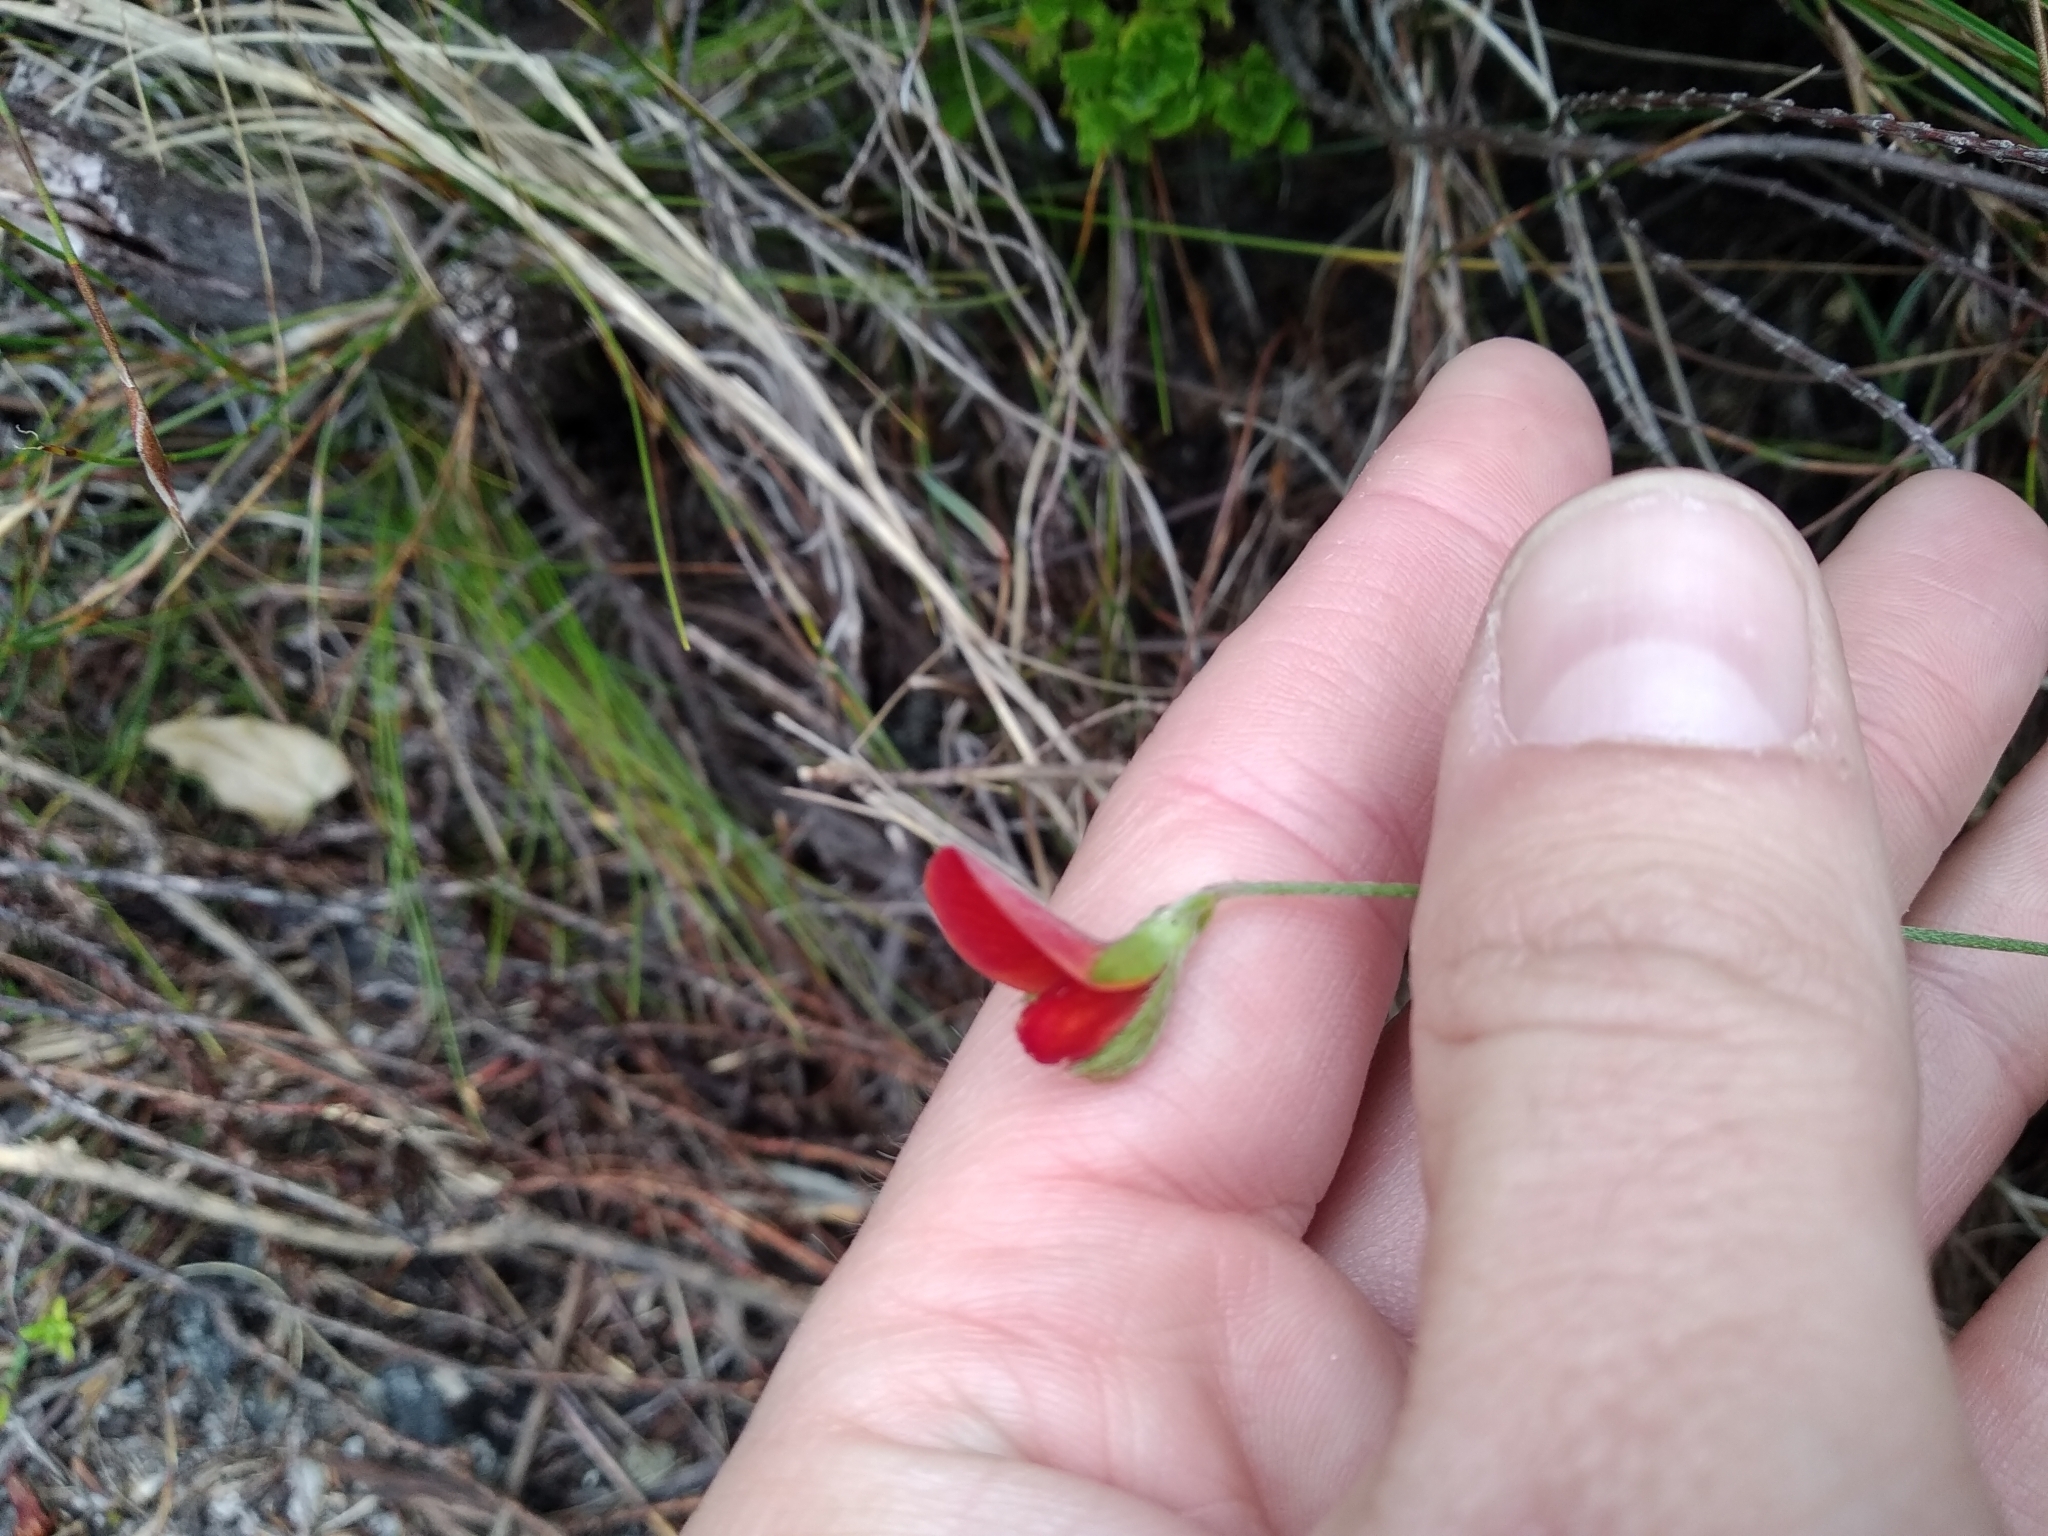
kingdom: Plantae
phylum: Tracheophyta
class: Magnoliopsida
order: Fabales
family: Fabaceae
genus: Argyrolobium
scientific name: Argyrolobium lunare
